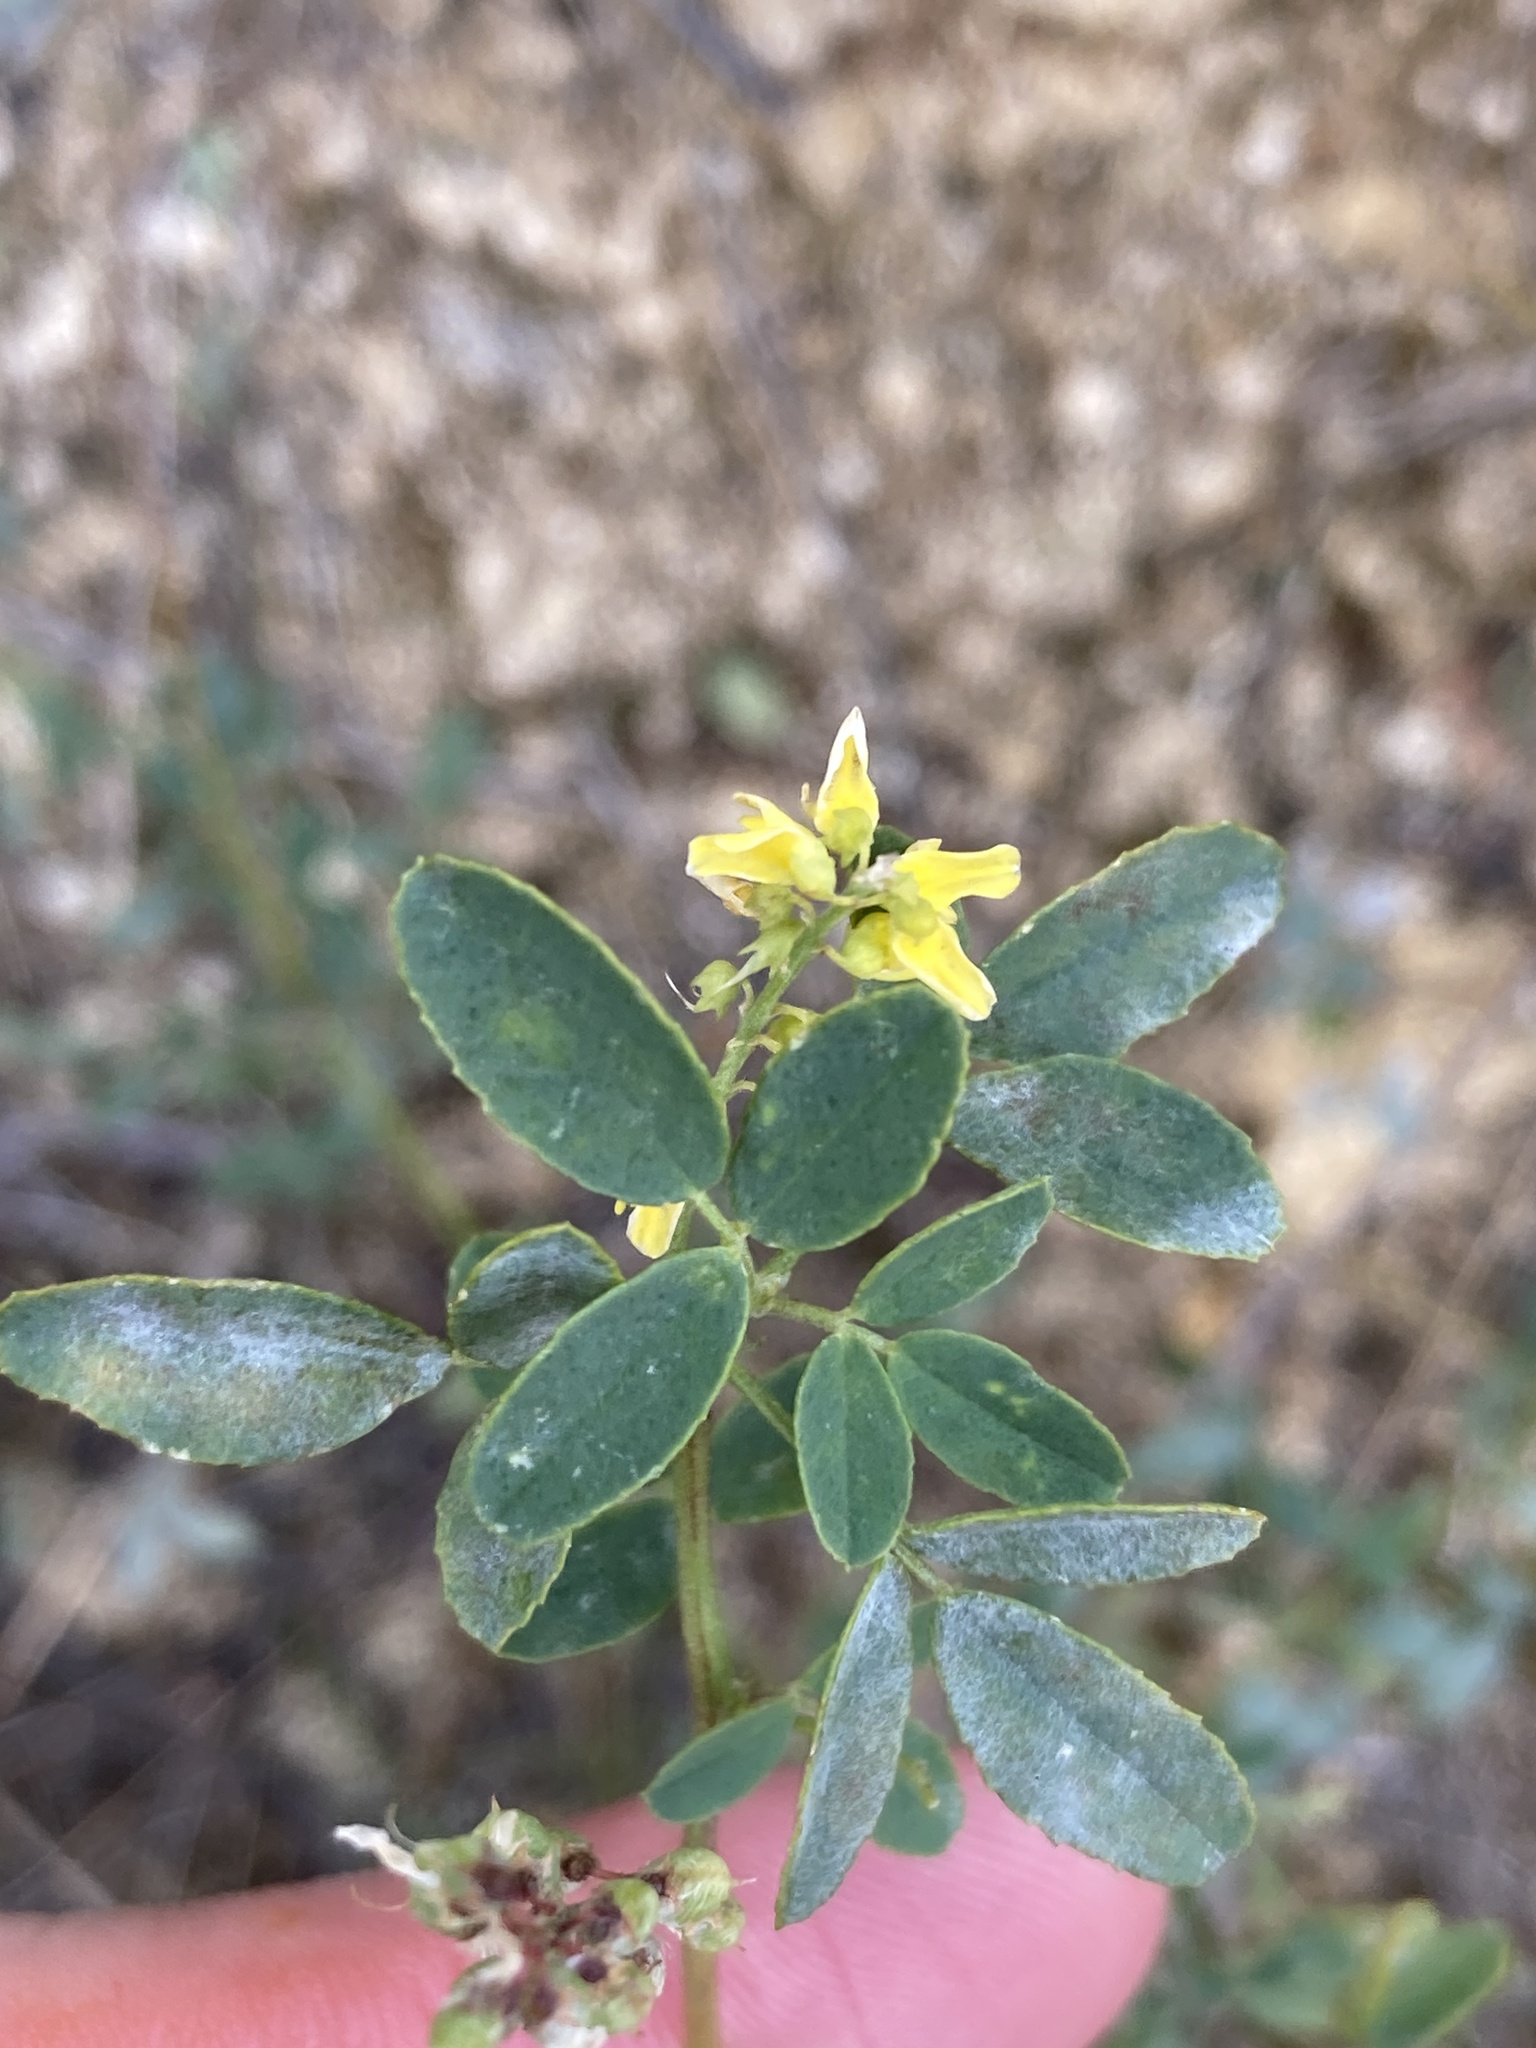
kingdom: Plantae
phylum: Tracheophyta
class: Magnoliopsida
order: Fabales
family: Fabaceae
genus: Melilotus
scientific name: Melilotus officinalis
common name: Sweetclover
